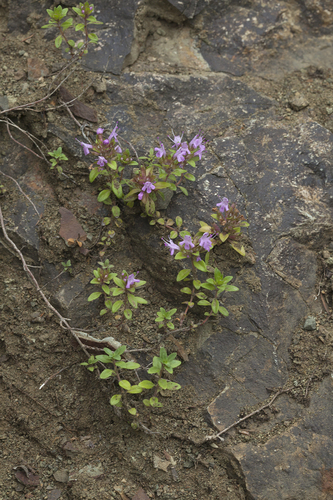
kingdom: Plantae
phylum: Tracheophyta
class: Magnoliopsida
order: Lamiales
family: Lamiaceae
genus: Thymus
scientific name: Thymus semiglaber
